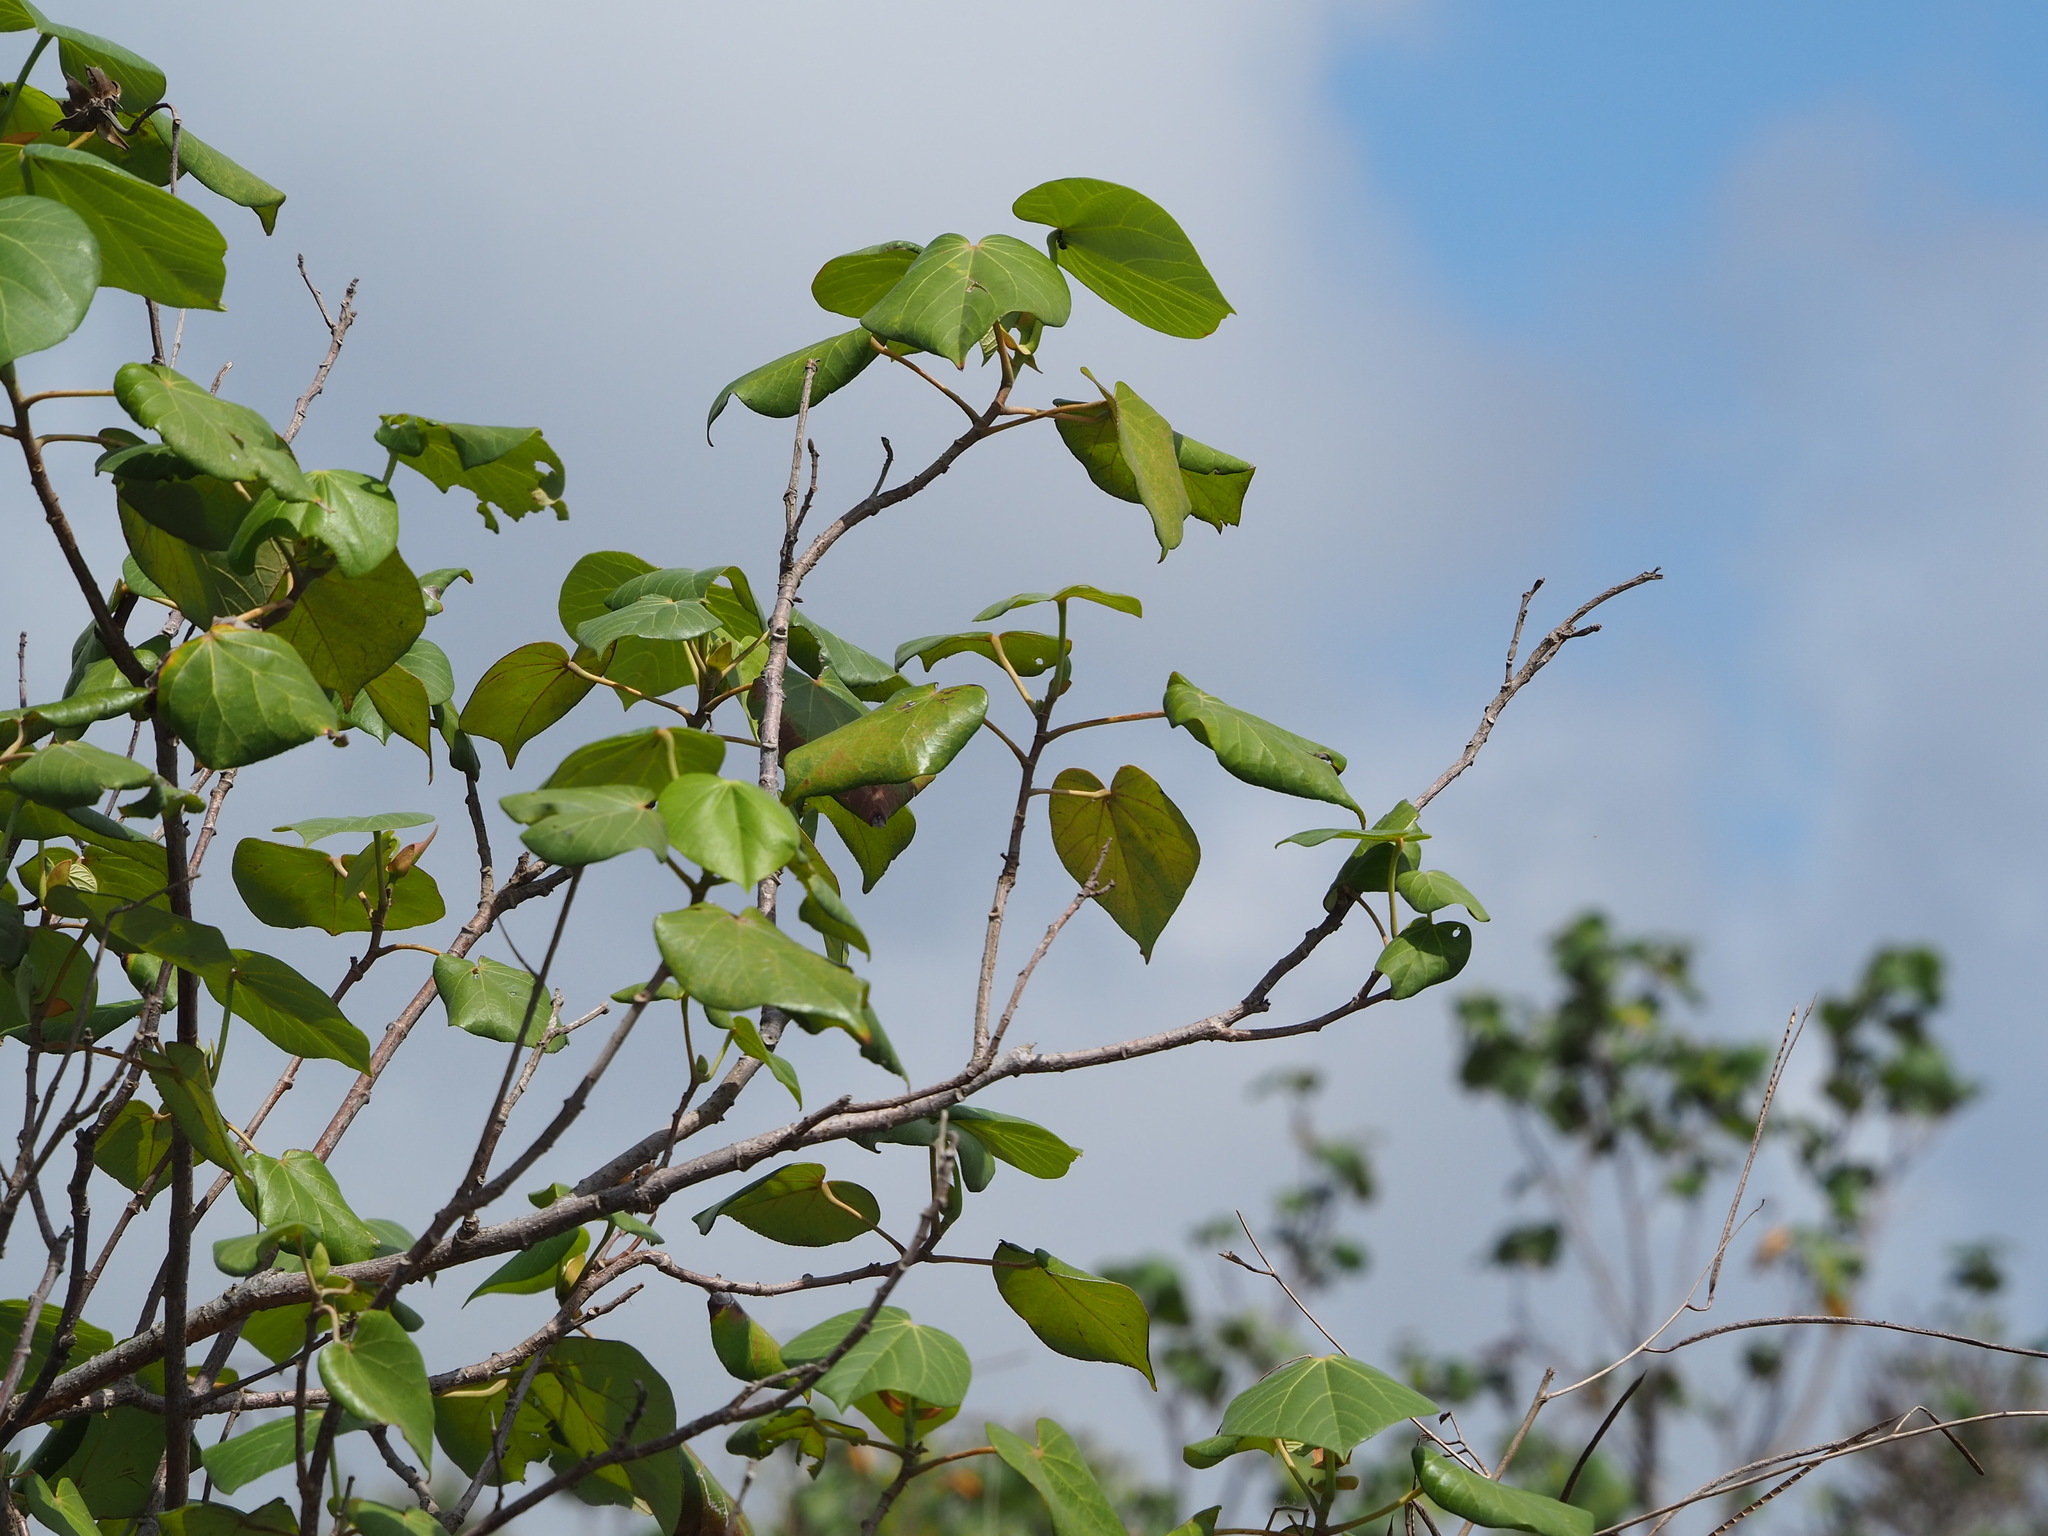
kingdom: Plantae
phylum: Tracheophyta
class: Magnoliopsida
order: Malvales
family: Malvaceae
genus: Talipariti
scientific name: Talipariti tiliaceum
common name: Sea hibiscus
